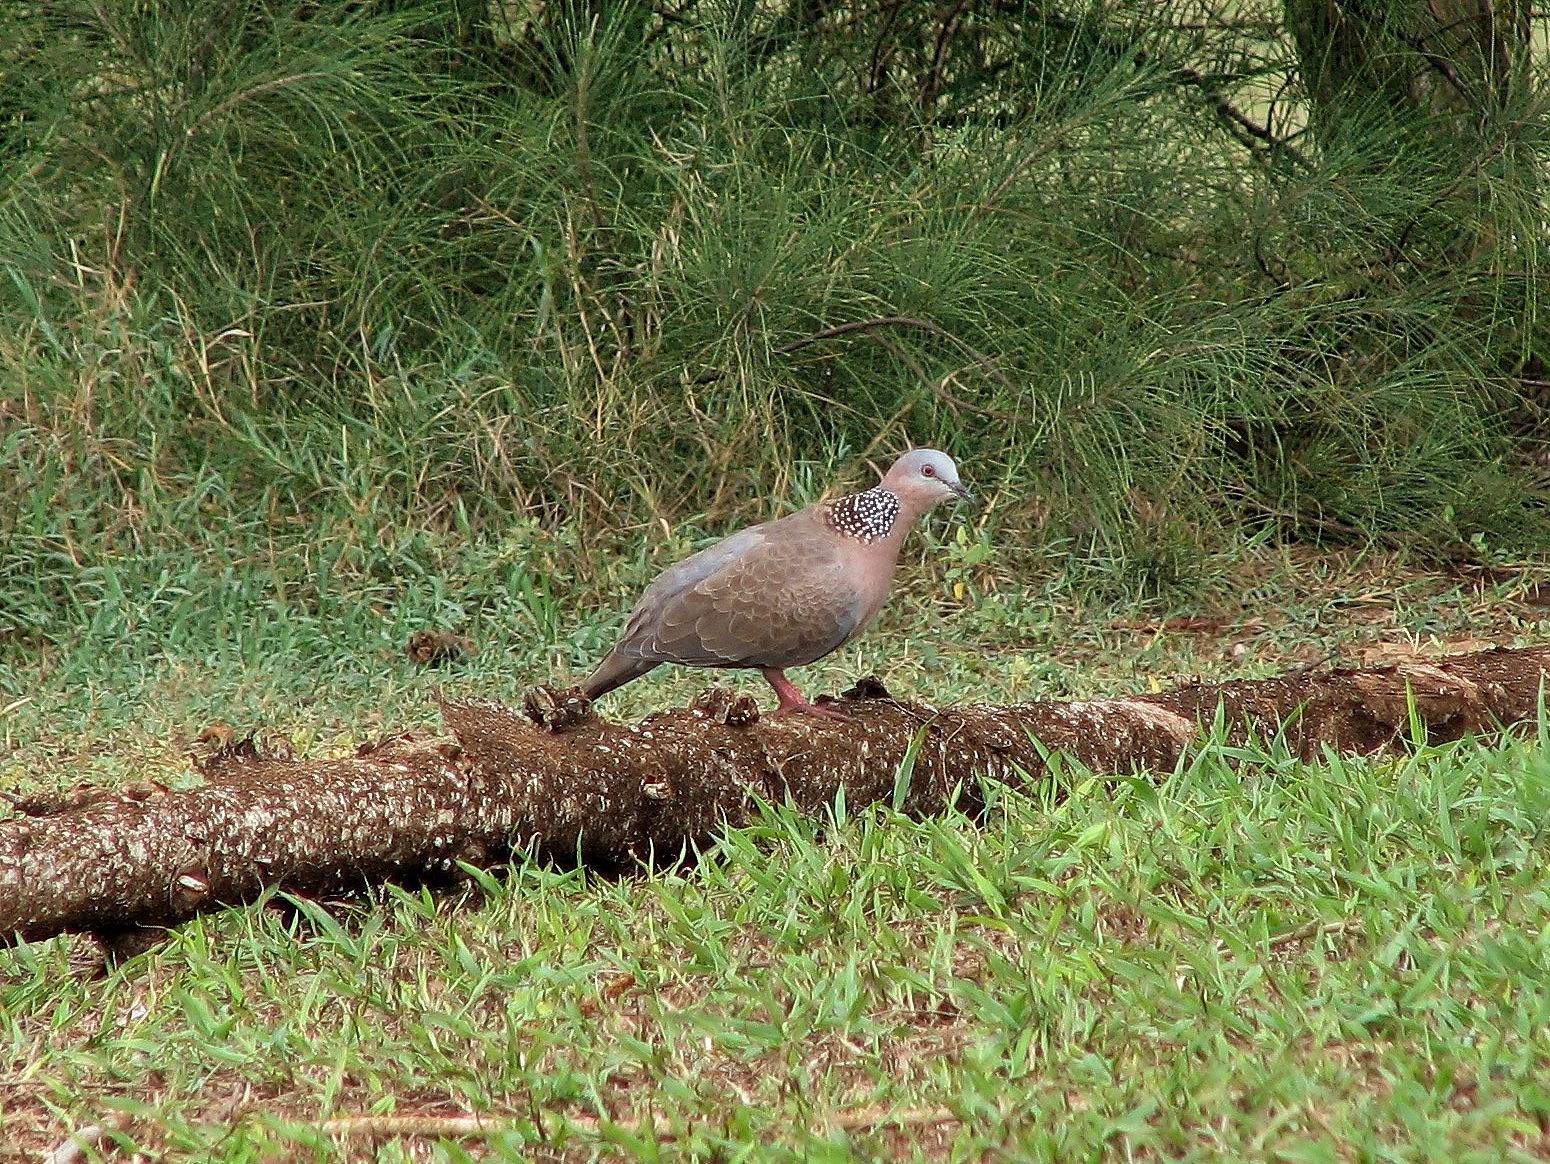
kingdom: Animalia
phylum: Chordata
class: Aves
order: Columbiformes
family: Columbidae
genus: Spilopelia
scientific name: Spilopelia chinensis
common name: Spotted dove
